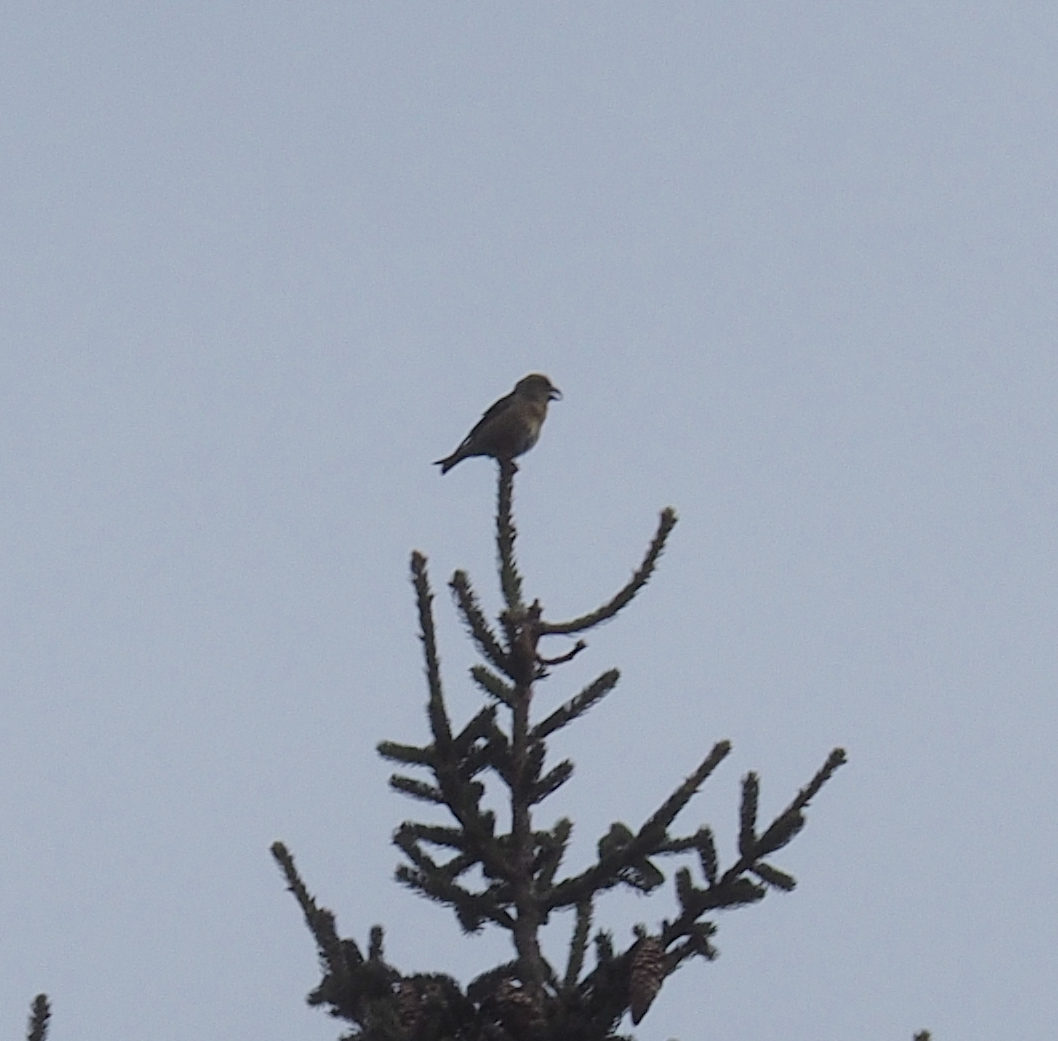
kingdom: Animalia
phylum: Chordata
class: Aves
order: Passeriformes
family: Fringillidae
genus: Loxia
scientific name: Loxia curvirostra
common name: Red crossbill
